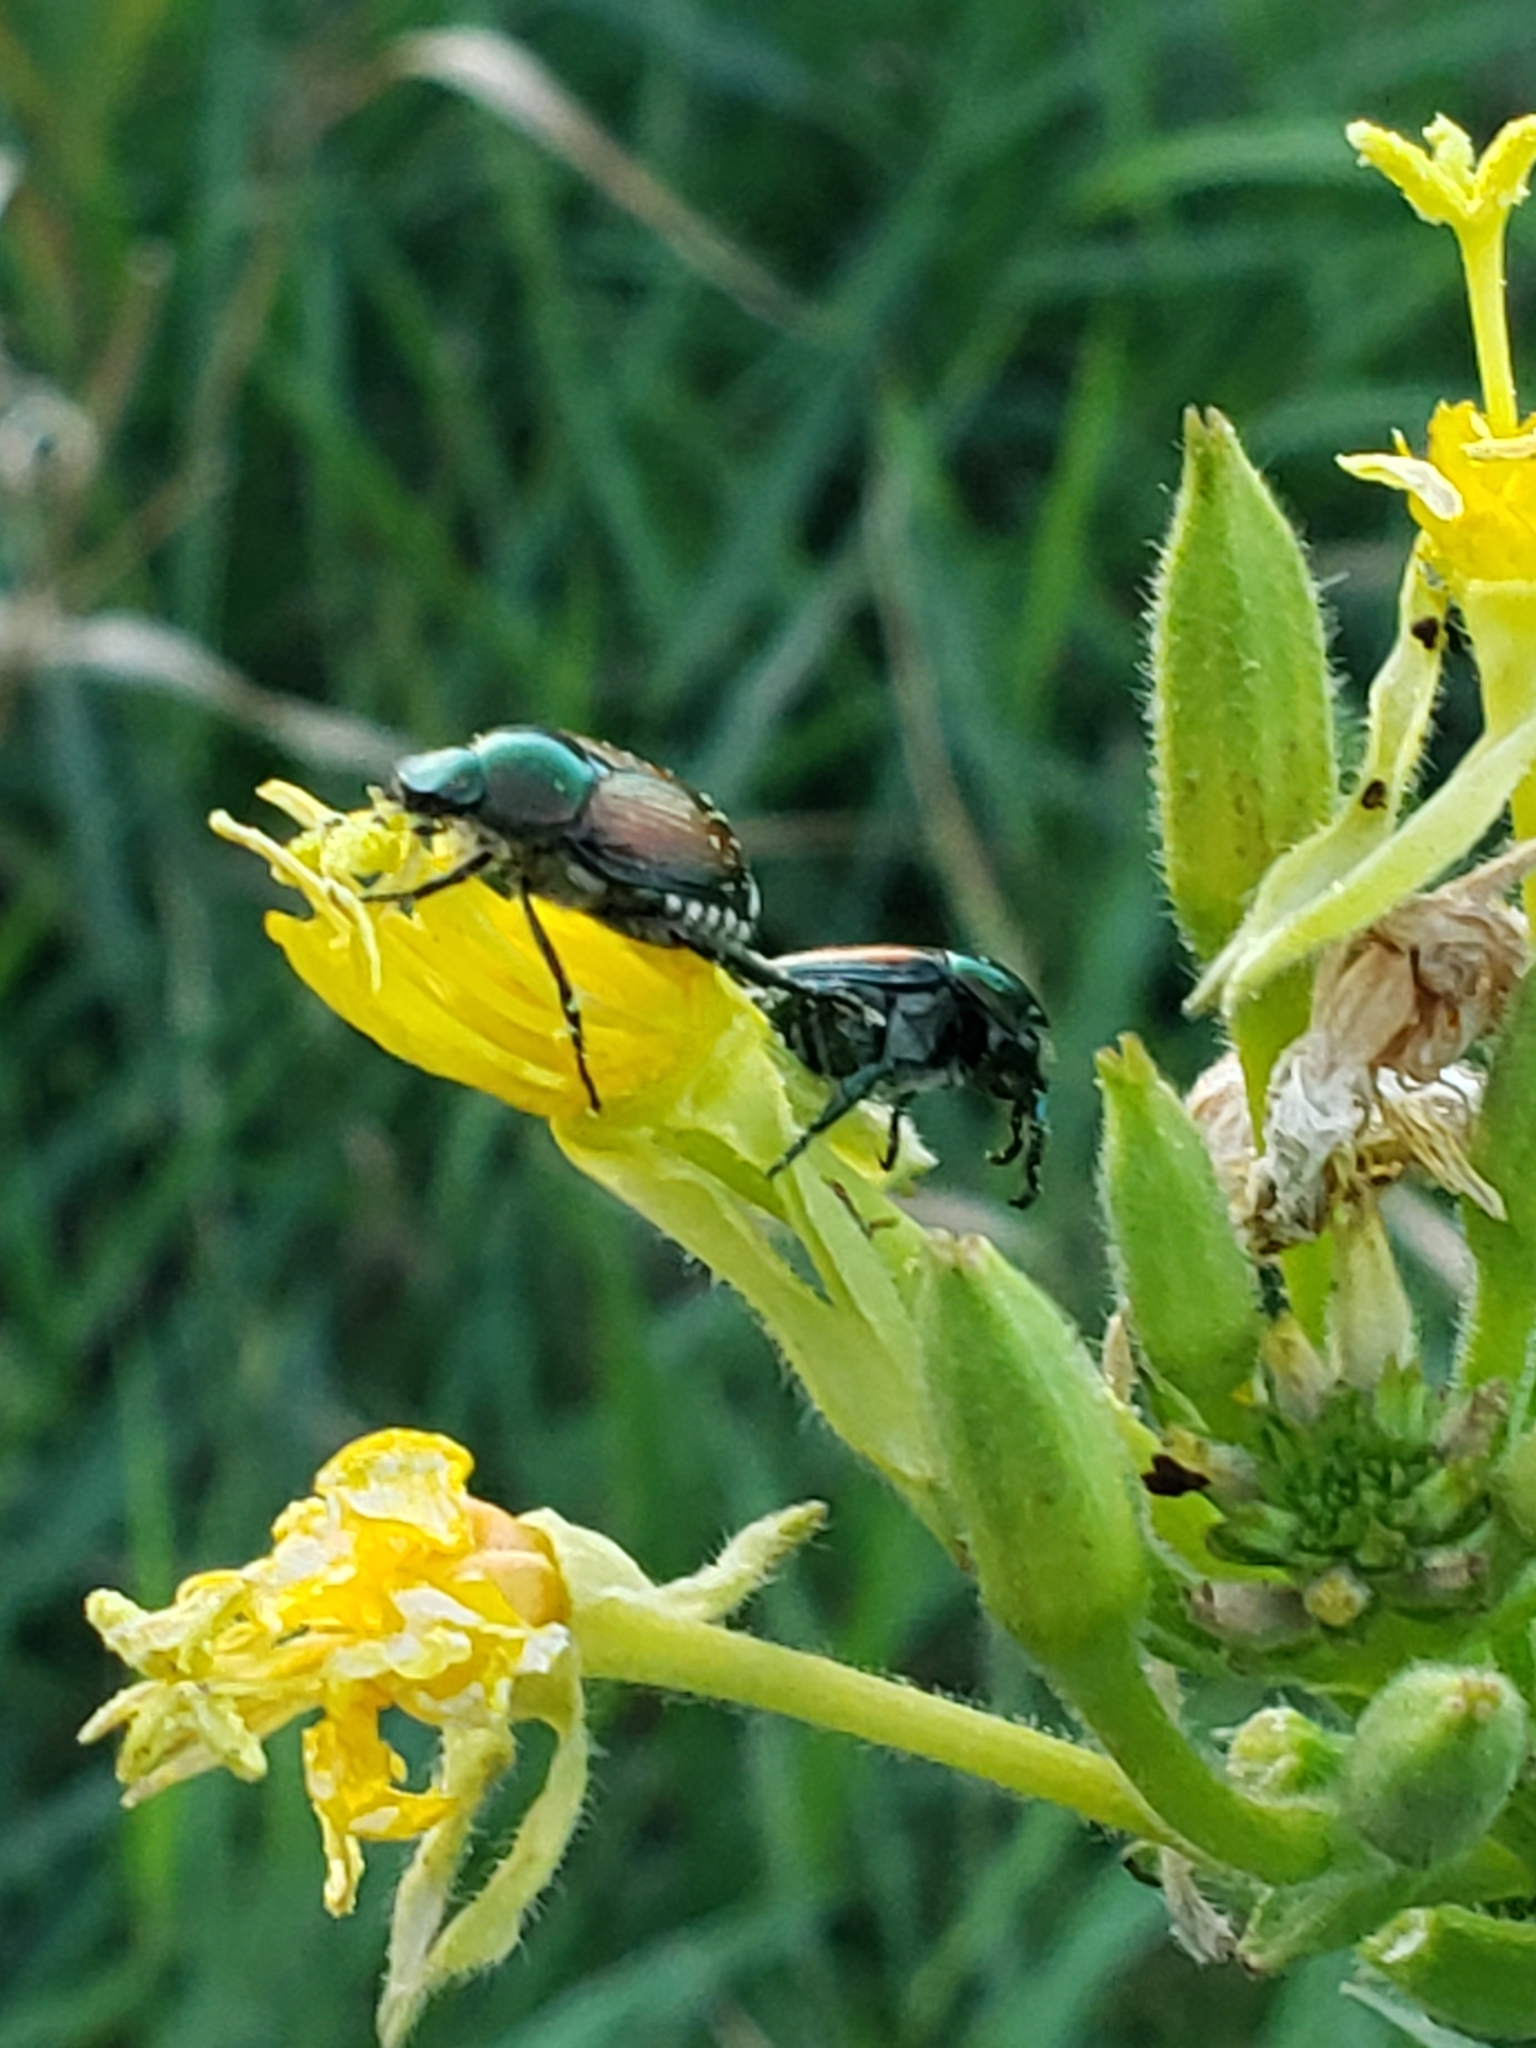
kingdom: Animalia
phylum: Arthropoda
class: Insecta
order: Coleoptera
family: Scarabaeidae
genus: Popillia
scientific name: Popillia japonica
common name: Japanese beetle
